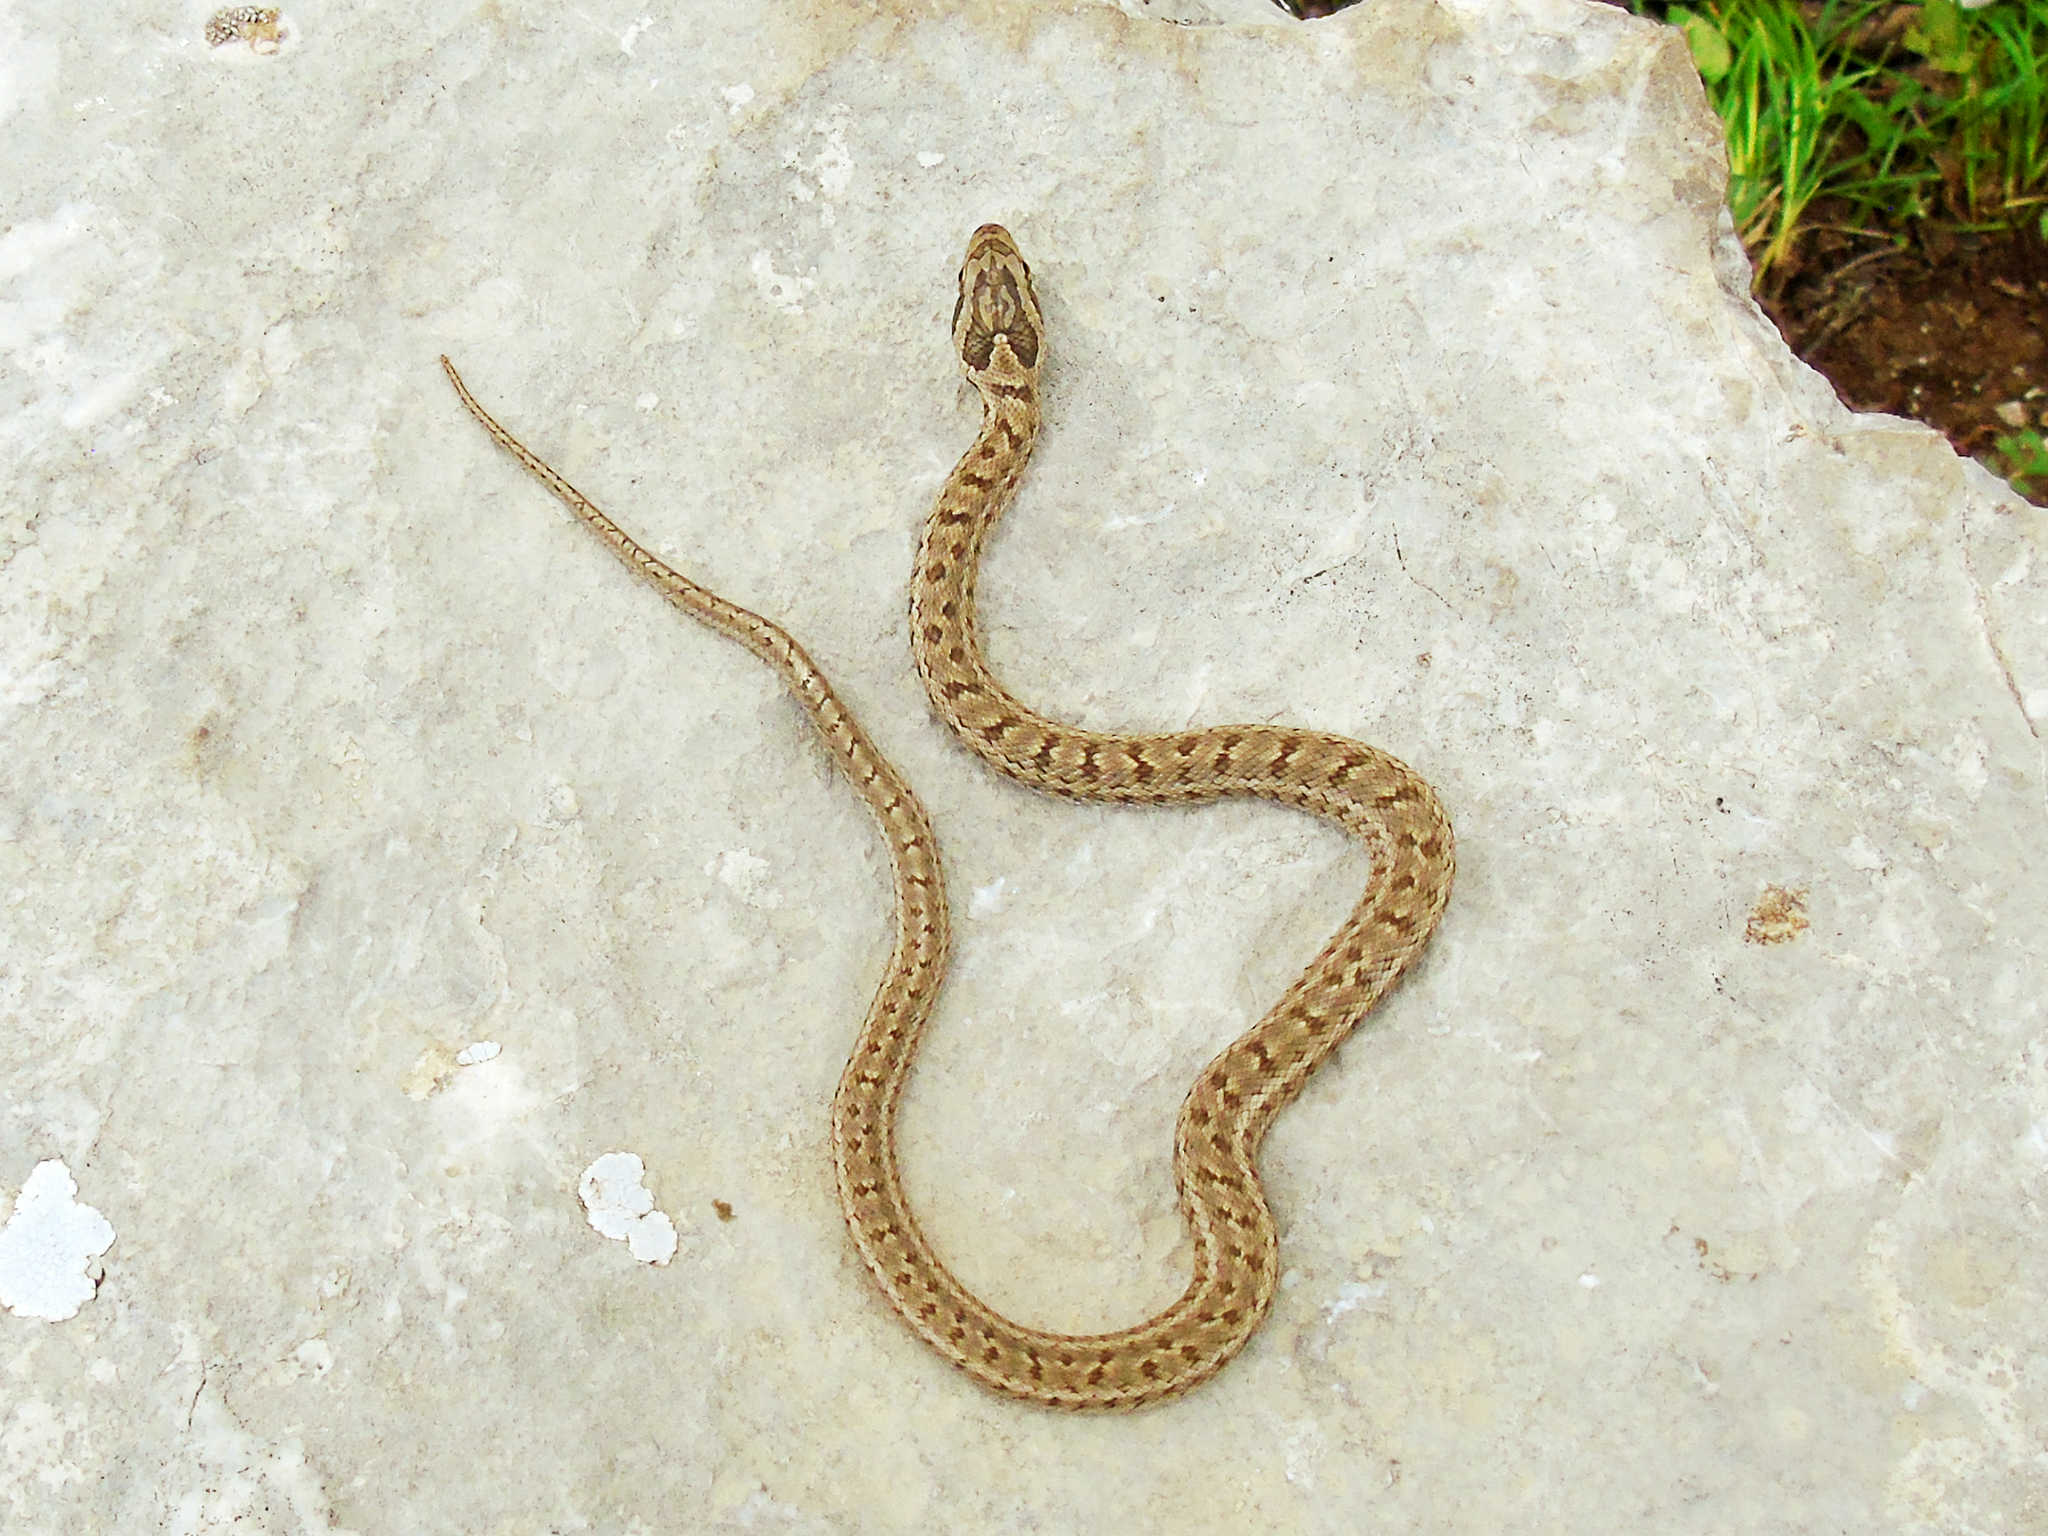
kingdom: Animalia
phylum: Chordata
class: Squamata
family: Colubridae
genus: Elaphe
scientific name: Elaphe dione
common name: Dione ratsnake
